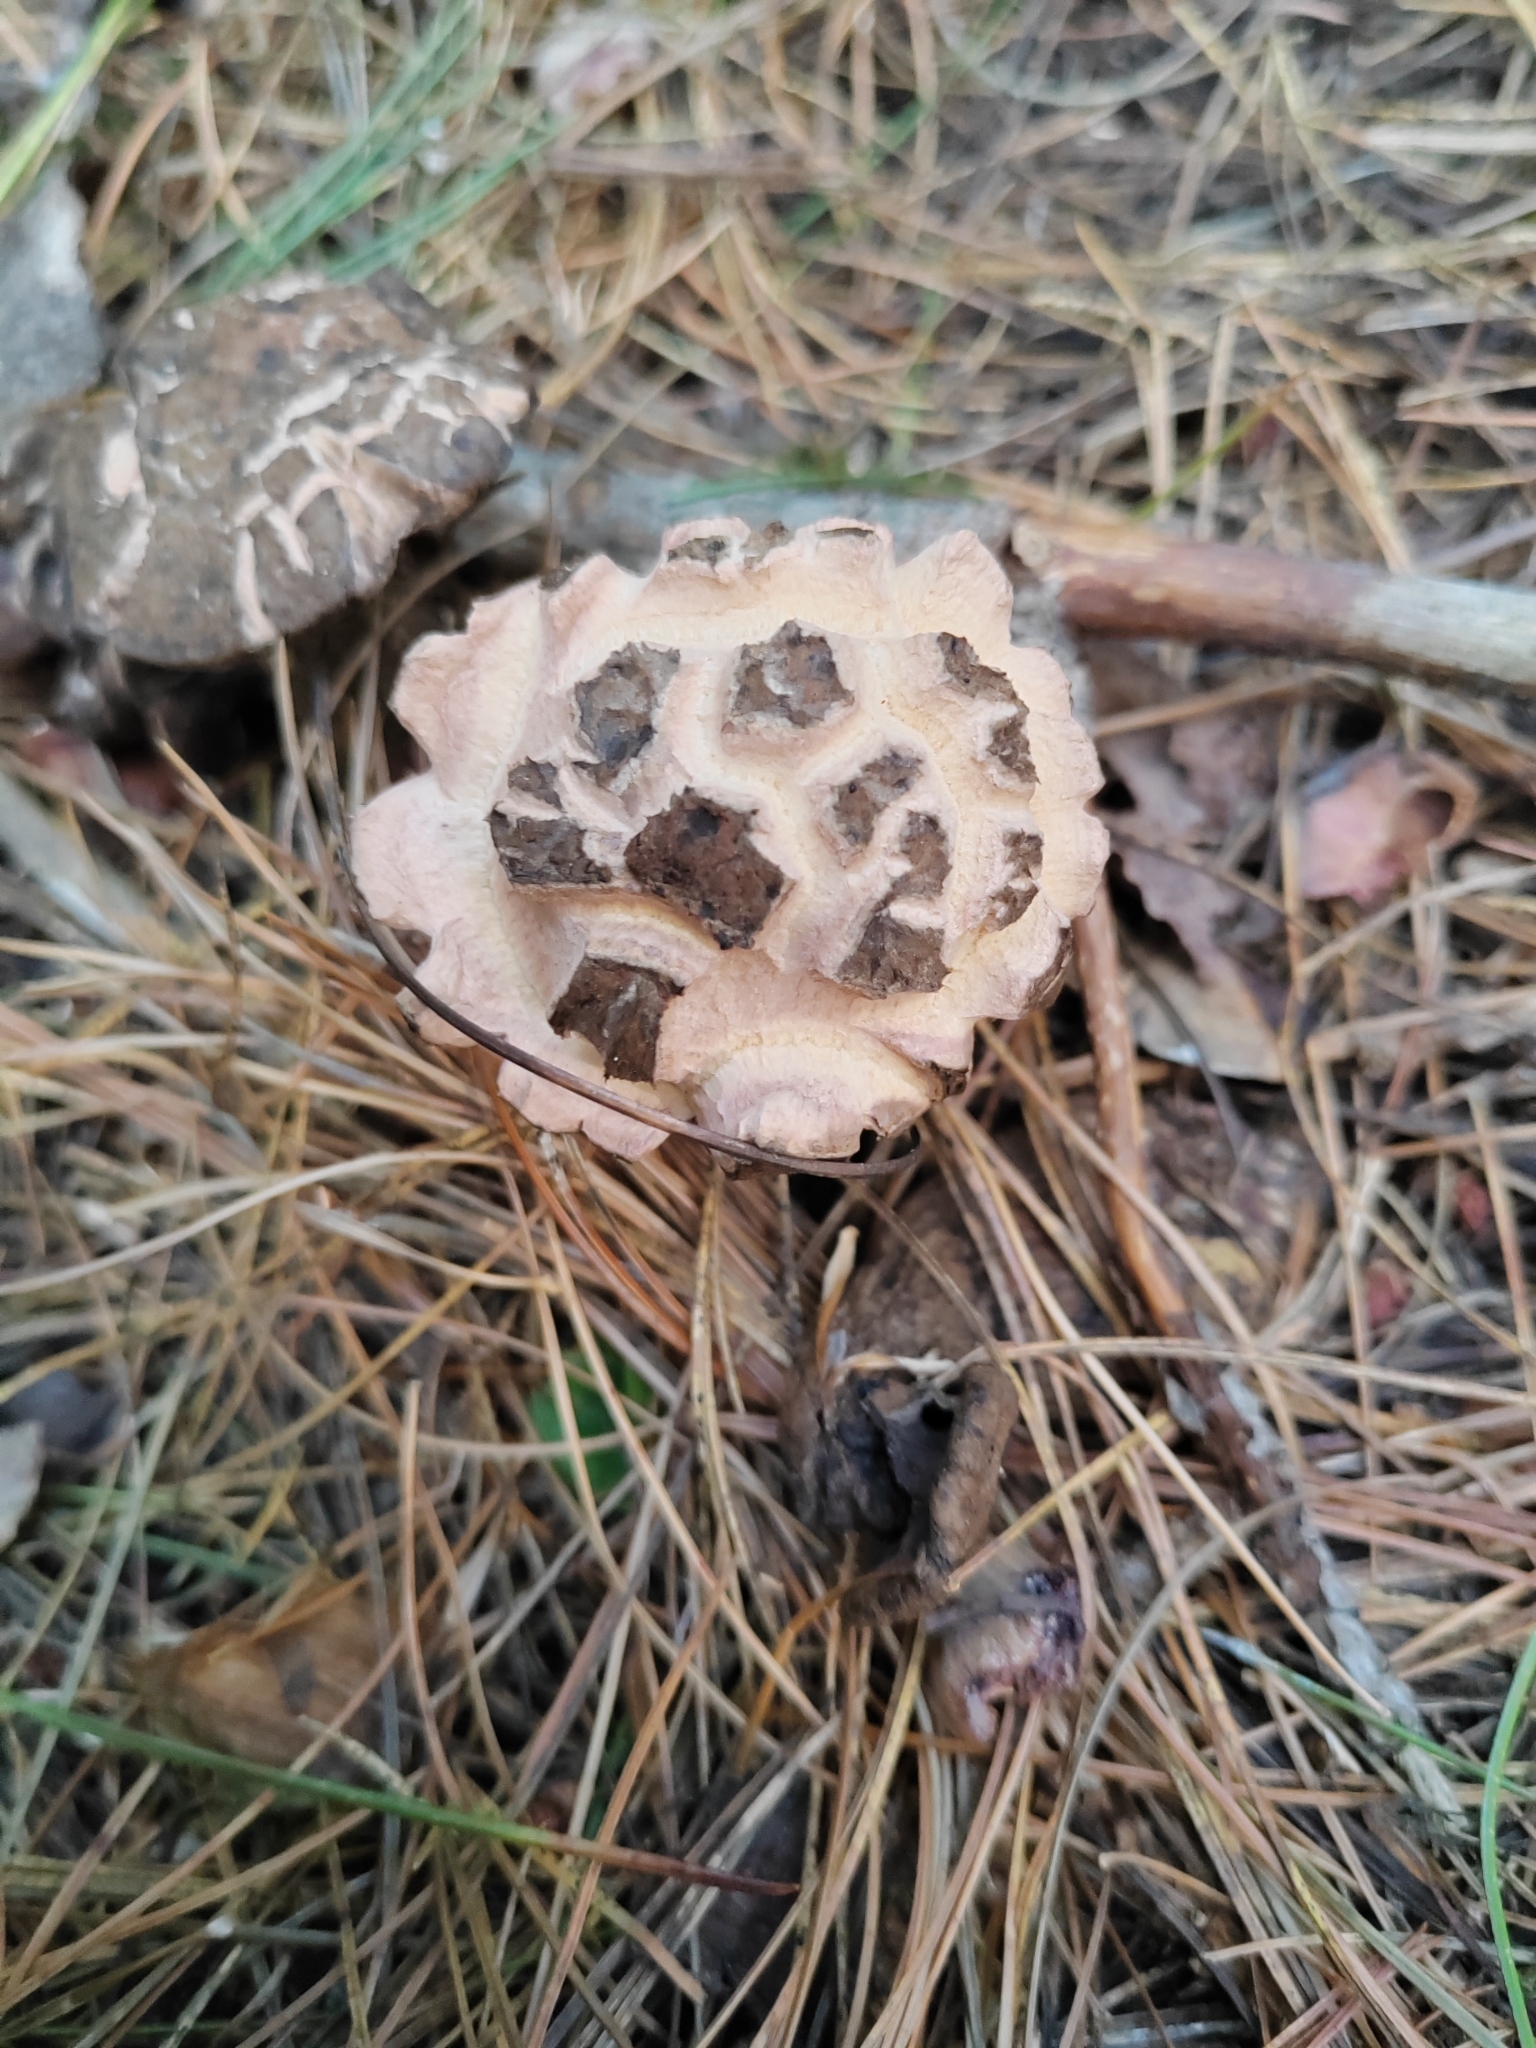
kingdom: Fungi
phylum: Basidiomycota
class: Agaricomycetes
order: Boletales
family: Suillaceae
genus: Suillus
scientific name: Suillus spraguei
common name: Painted suillus
